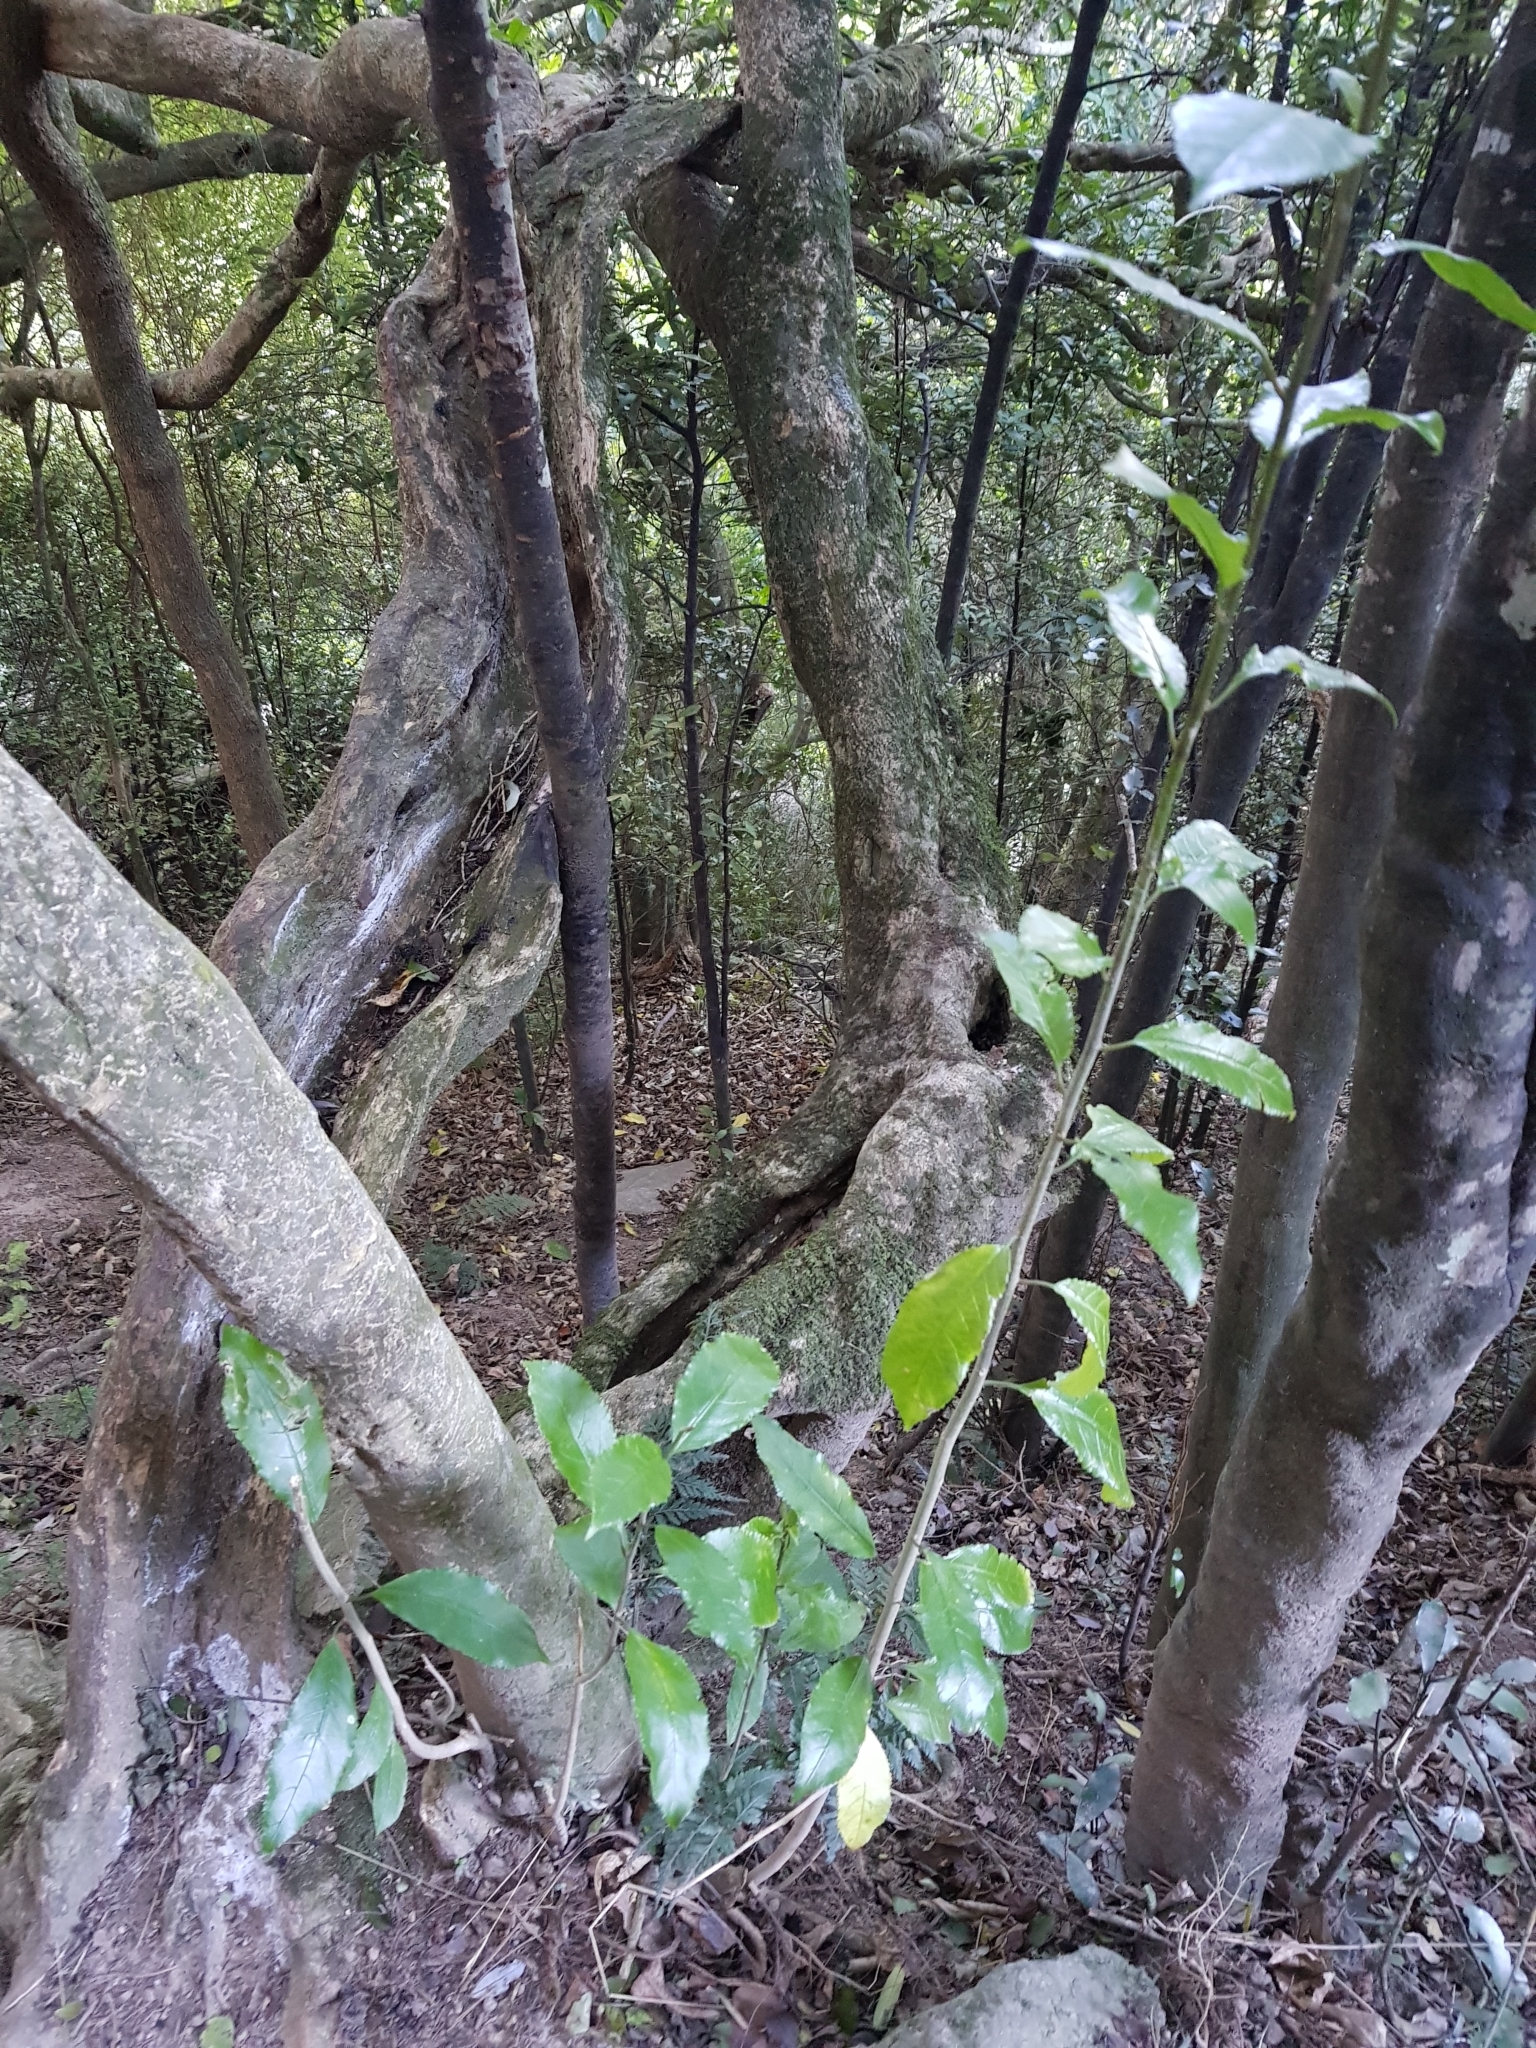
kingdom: Plantae
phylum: Tracheophyta
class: Magnoliopsida
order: Malpighiales
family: Violaceae
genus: Melicytus
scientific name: Melicytus ramiflorus
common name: Mahoe
